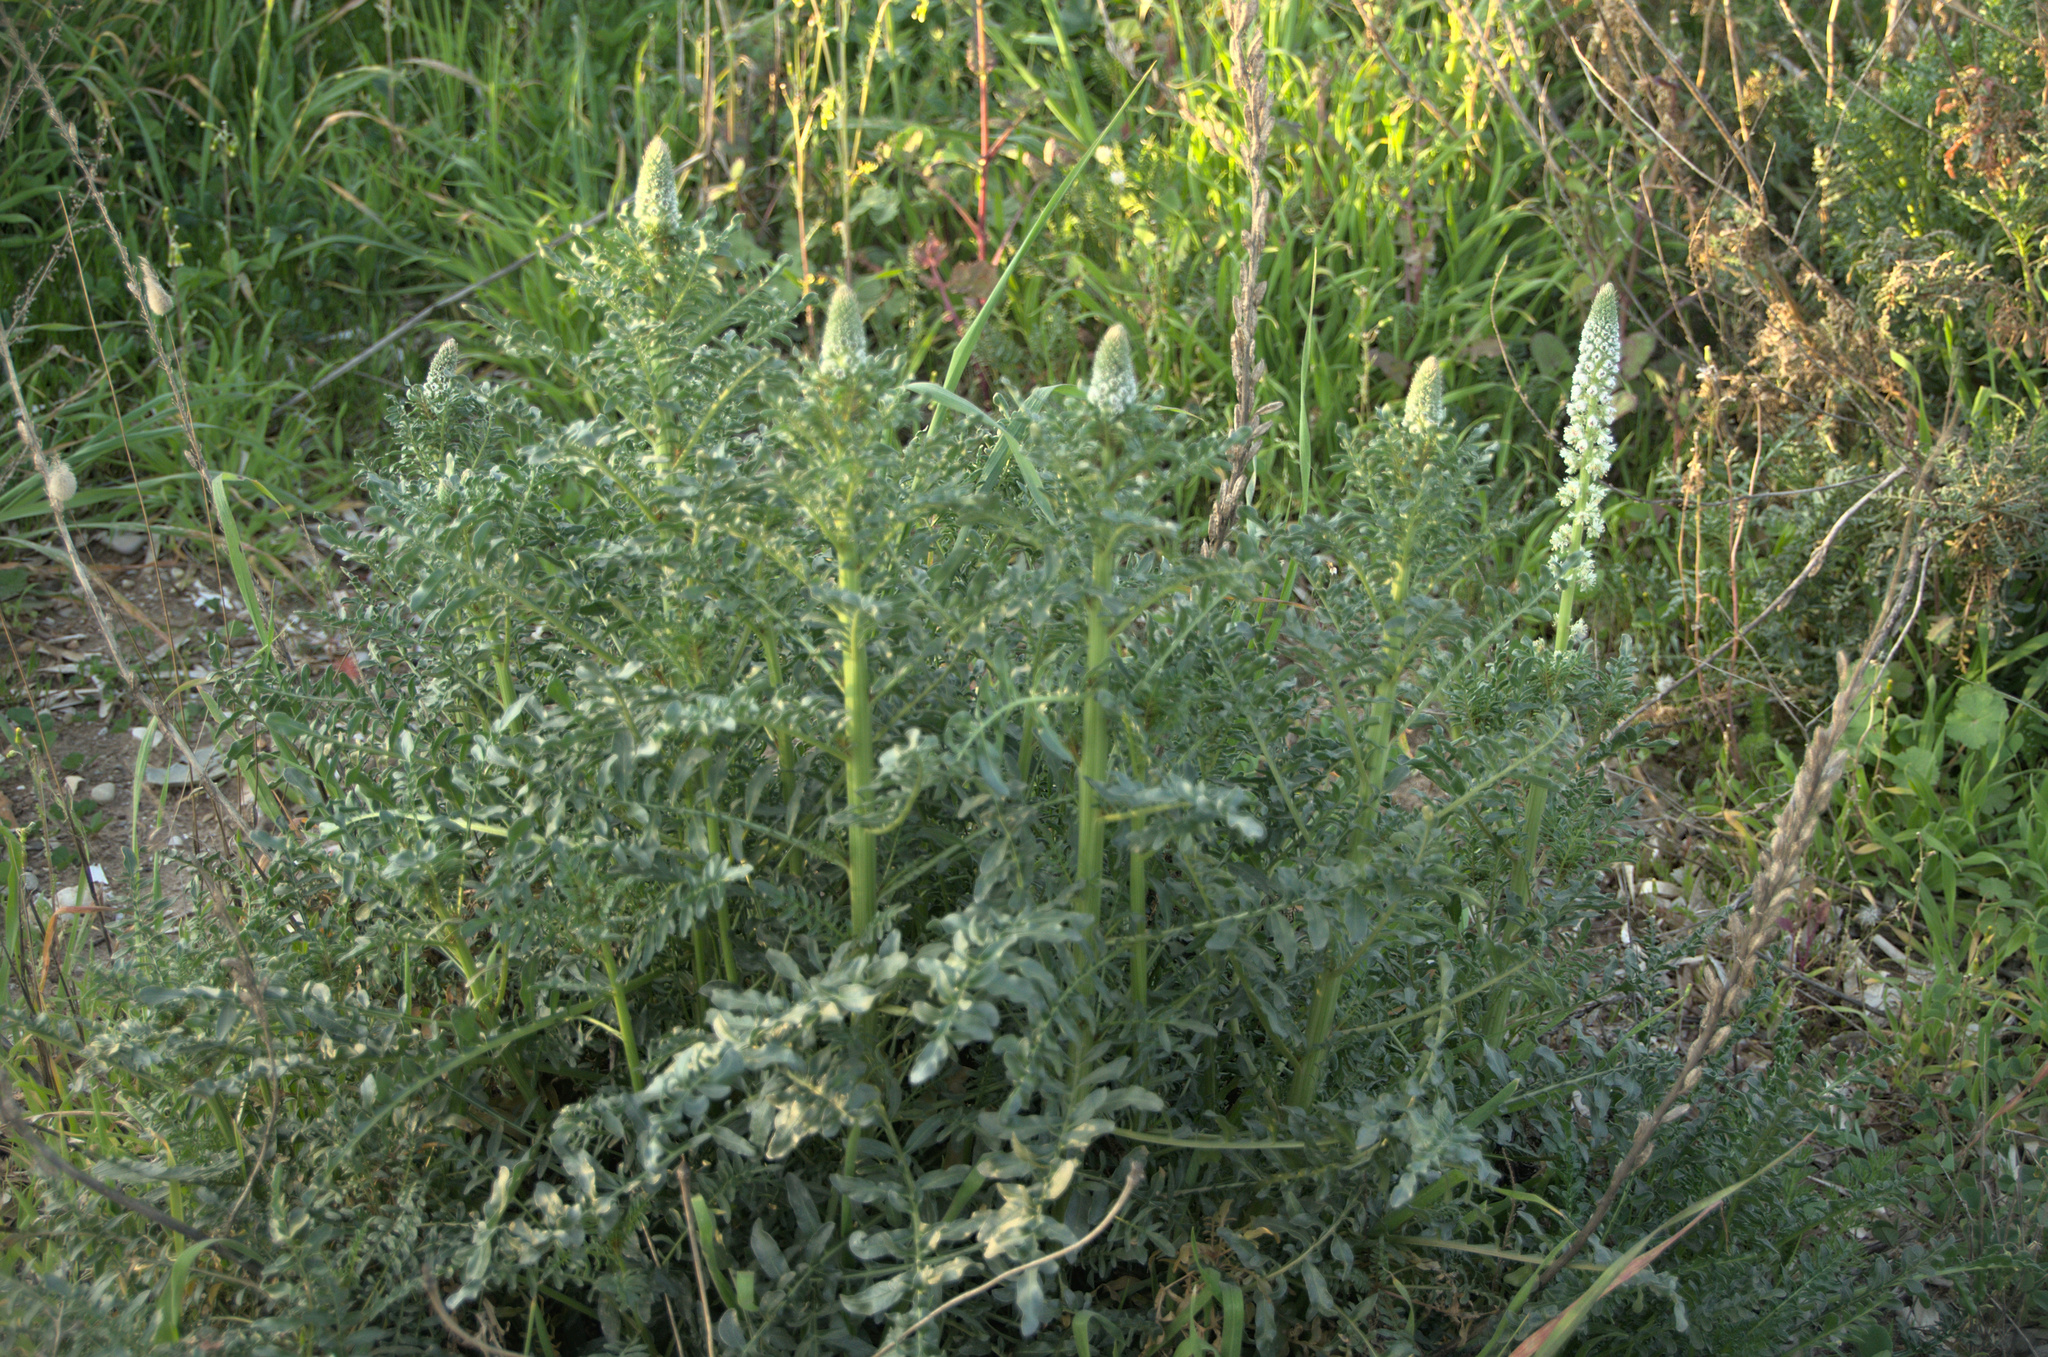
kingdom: Plantae
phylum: Tracheophyta
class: Magnoliopsida
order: Brassicales
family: Resedaceae
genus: Reseda
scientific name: Reseda alba
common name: White mignonette
